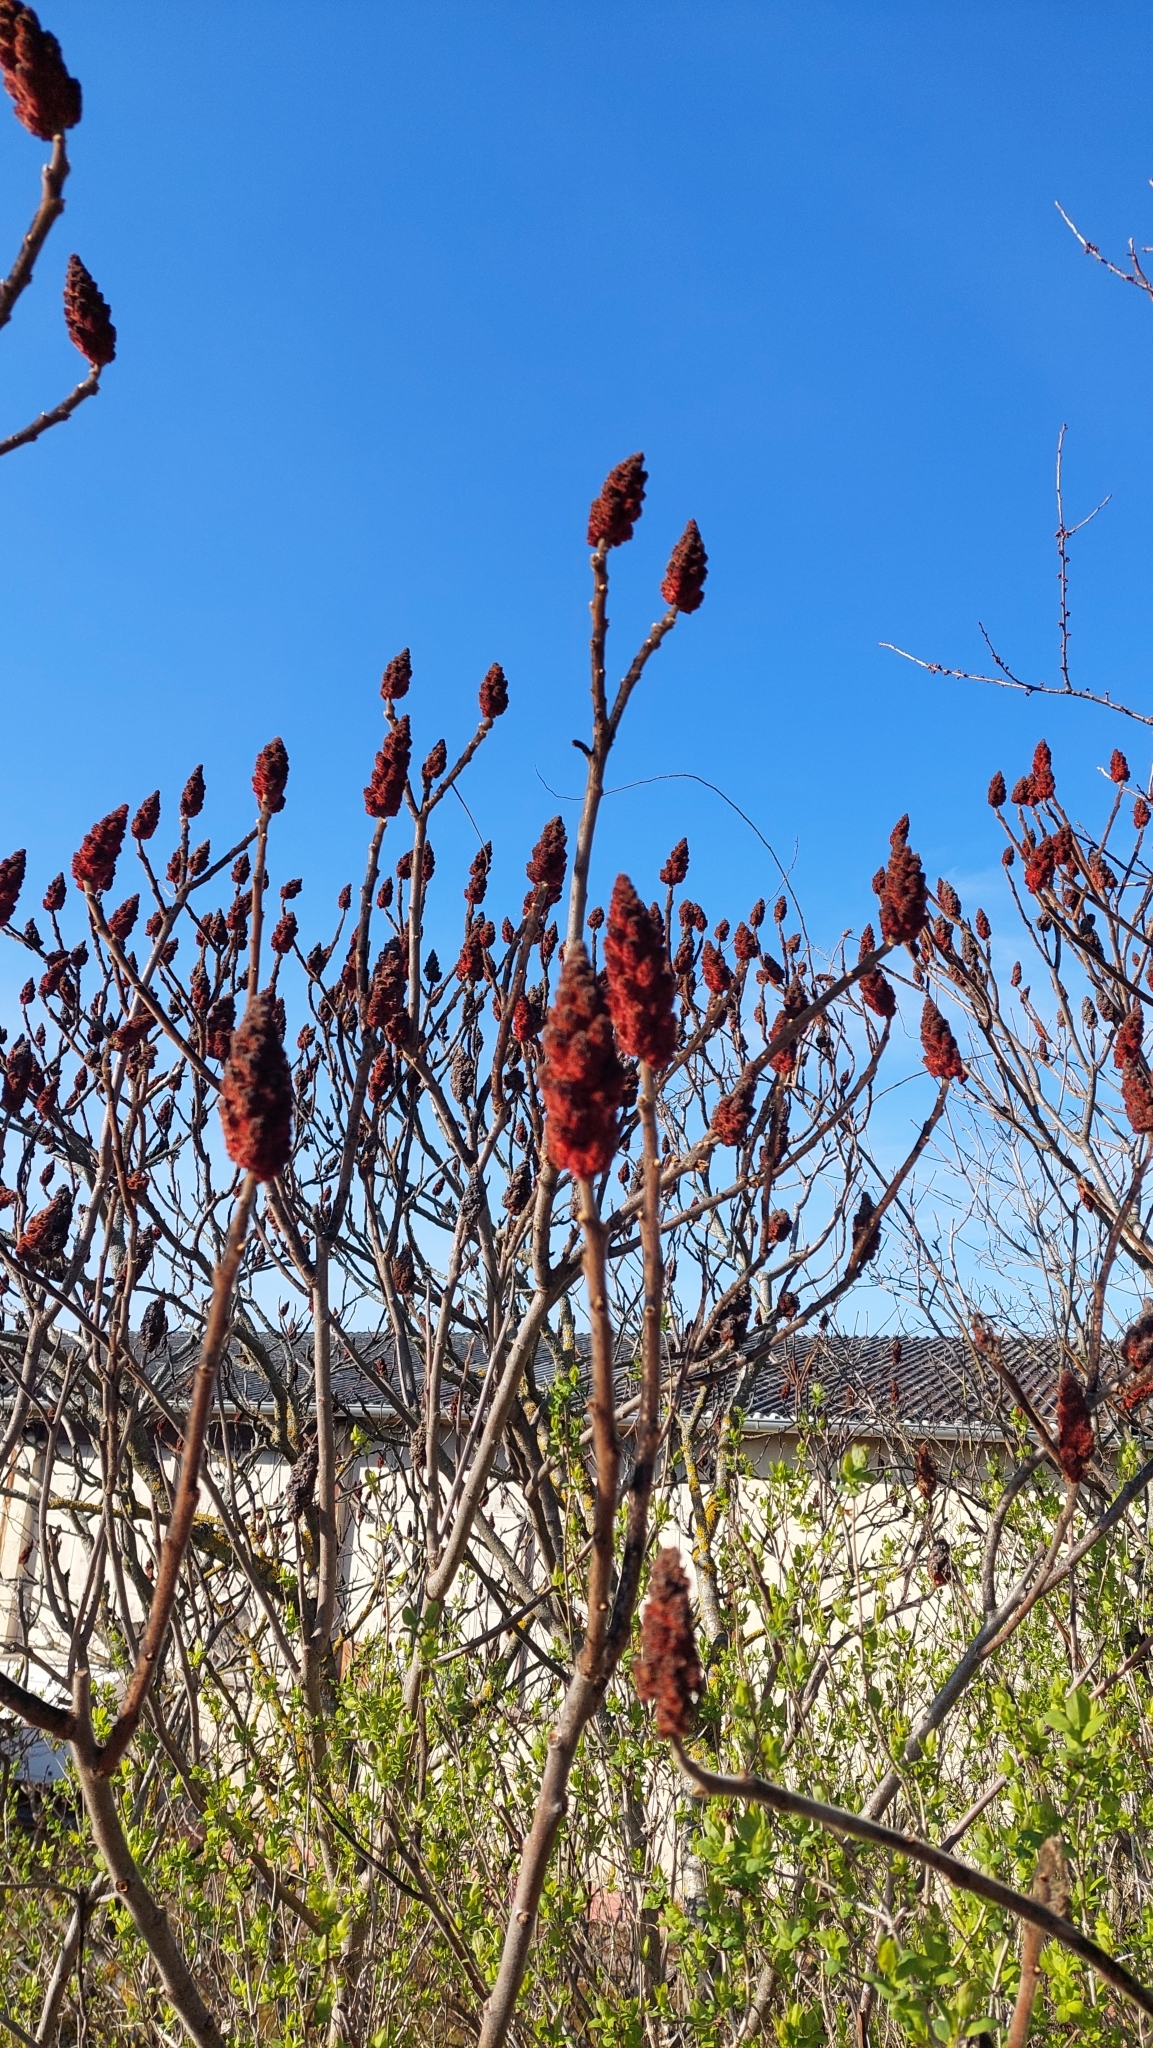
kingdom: Plantae
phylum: Tracheophyta
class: Magnoliopsida
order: Sapindales
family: Anacardiaceae
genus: Rhus
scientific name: Rhus typhina
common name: Staghorn sumac
